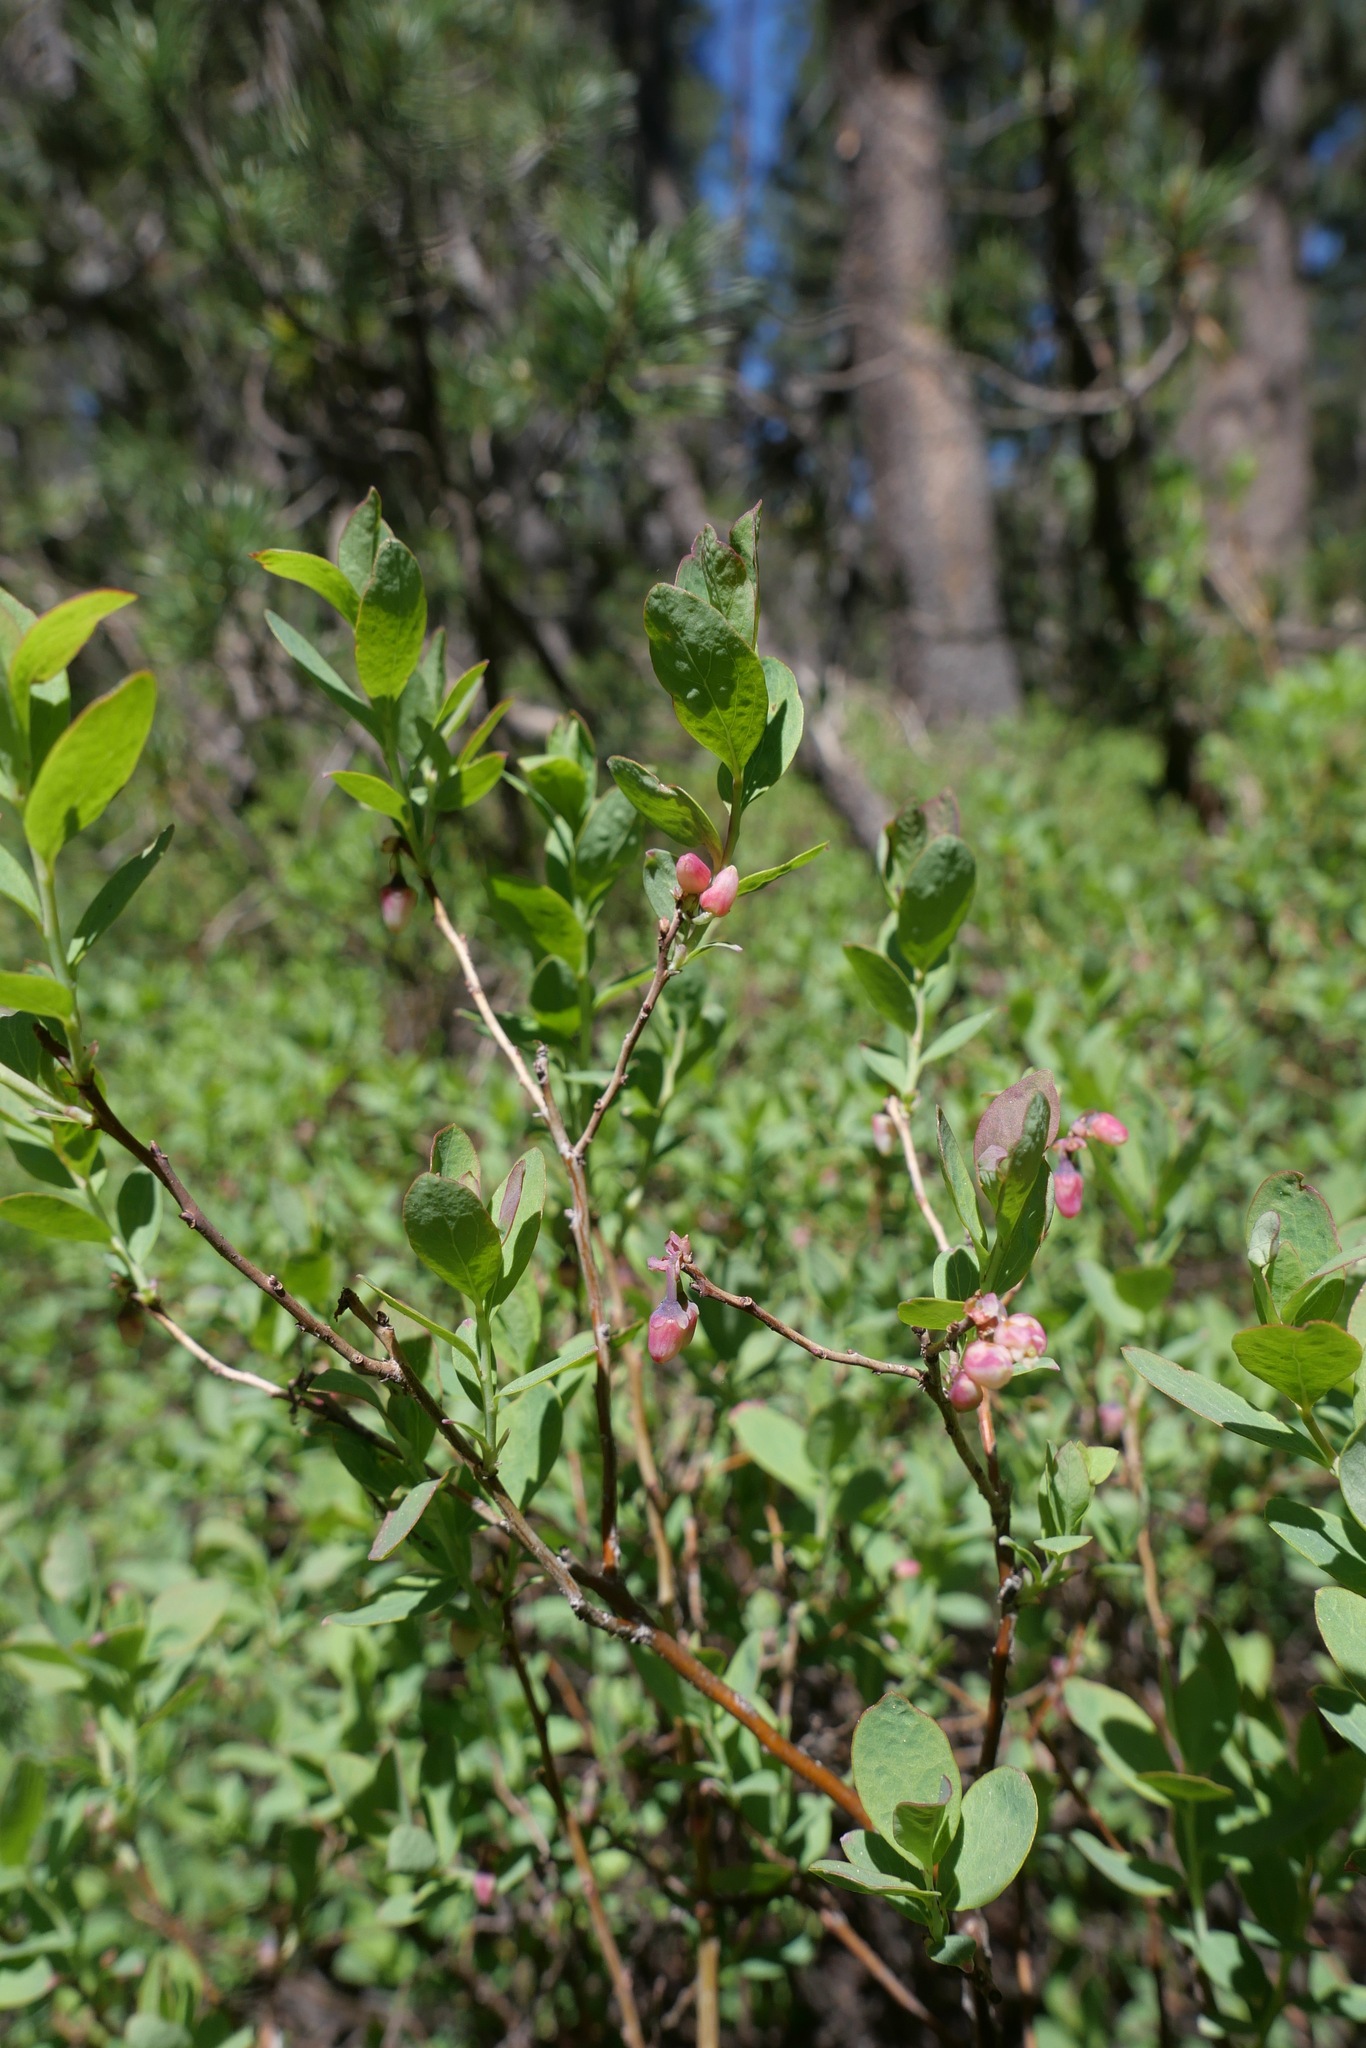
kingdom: Plantae
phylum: Tracheophyta
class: Magnoliopsida
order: Ericales
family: Ericaceae
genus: Vaccinium
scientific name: Vaccinium uliginosum
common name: Bog bilberry
